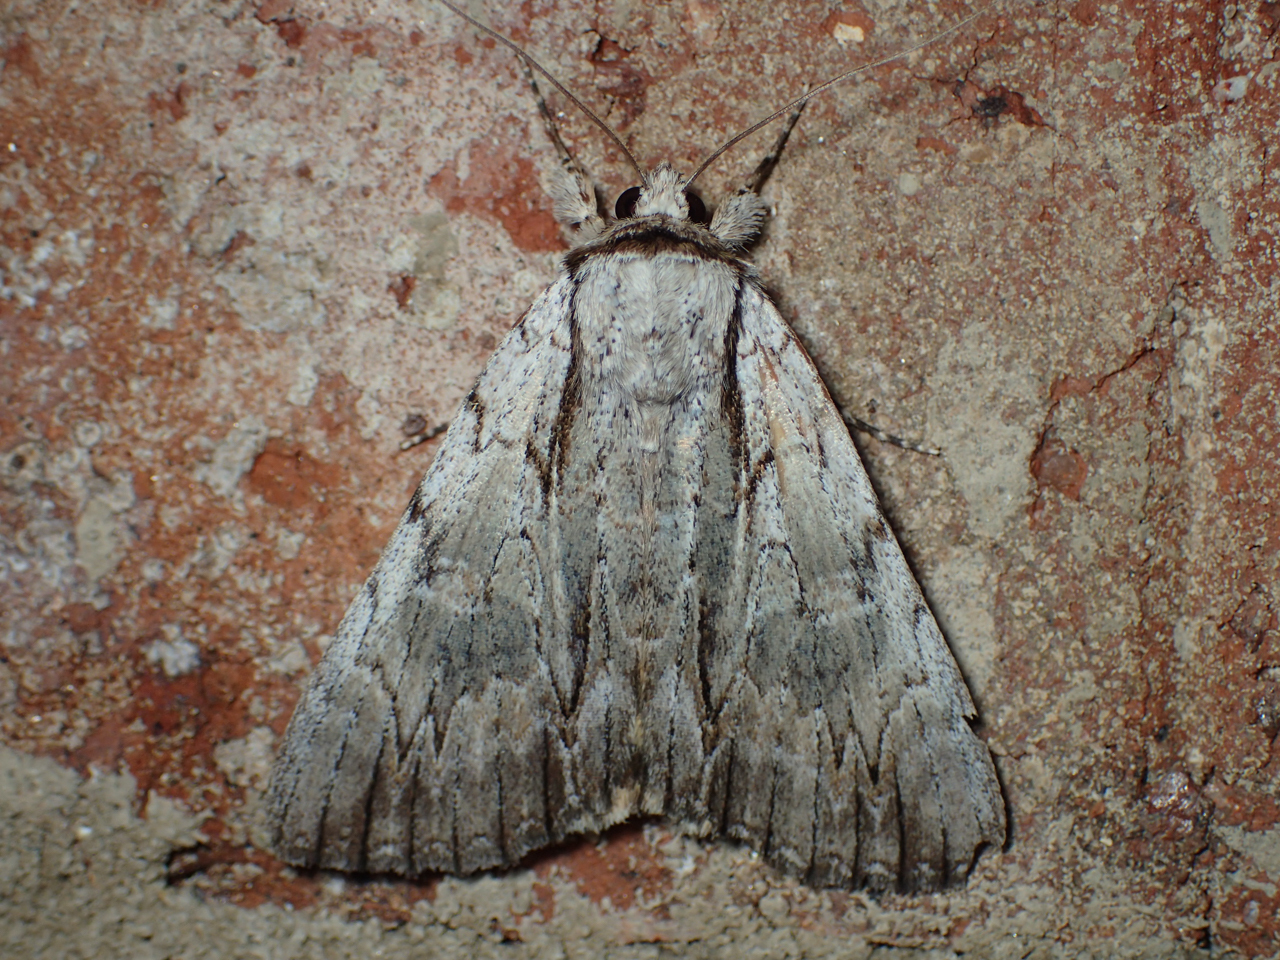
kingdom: Animalia
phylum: Arthropoda
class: Insecta
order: Lepidoptera
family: Erebidae
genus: Catocala
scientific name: Catocala clintonii
